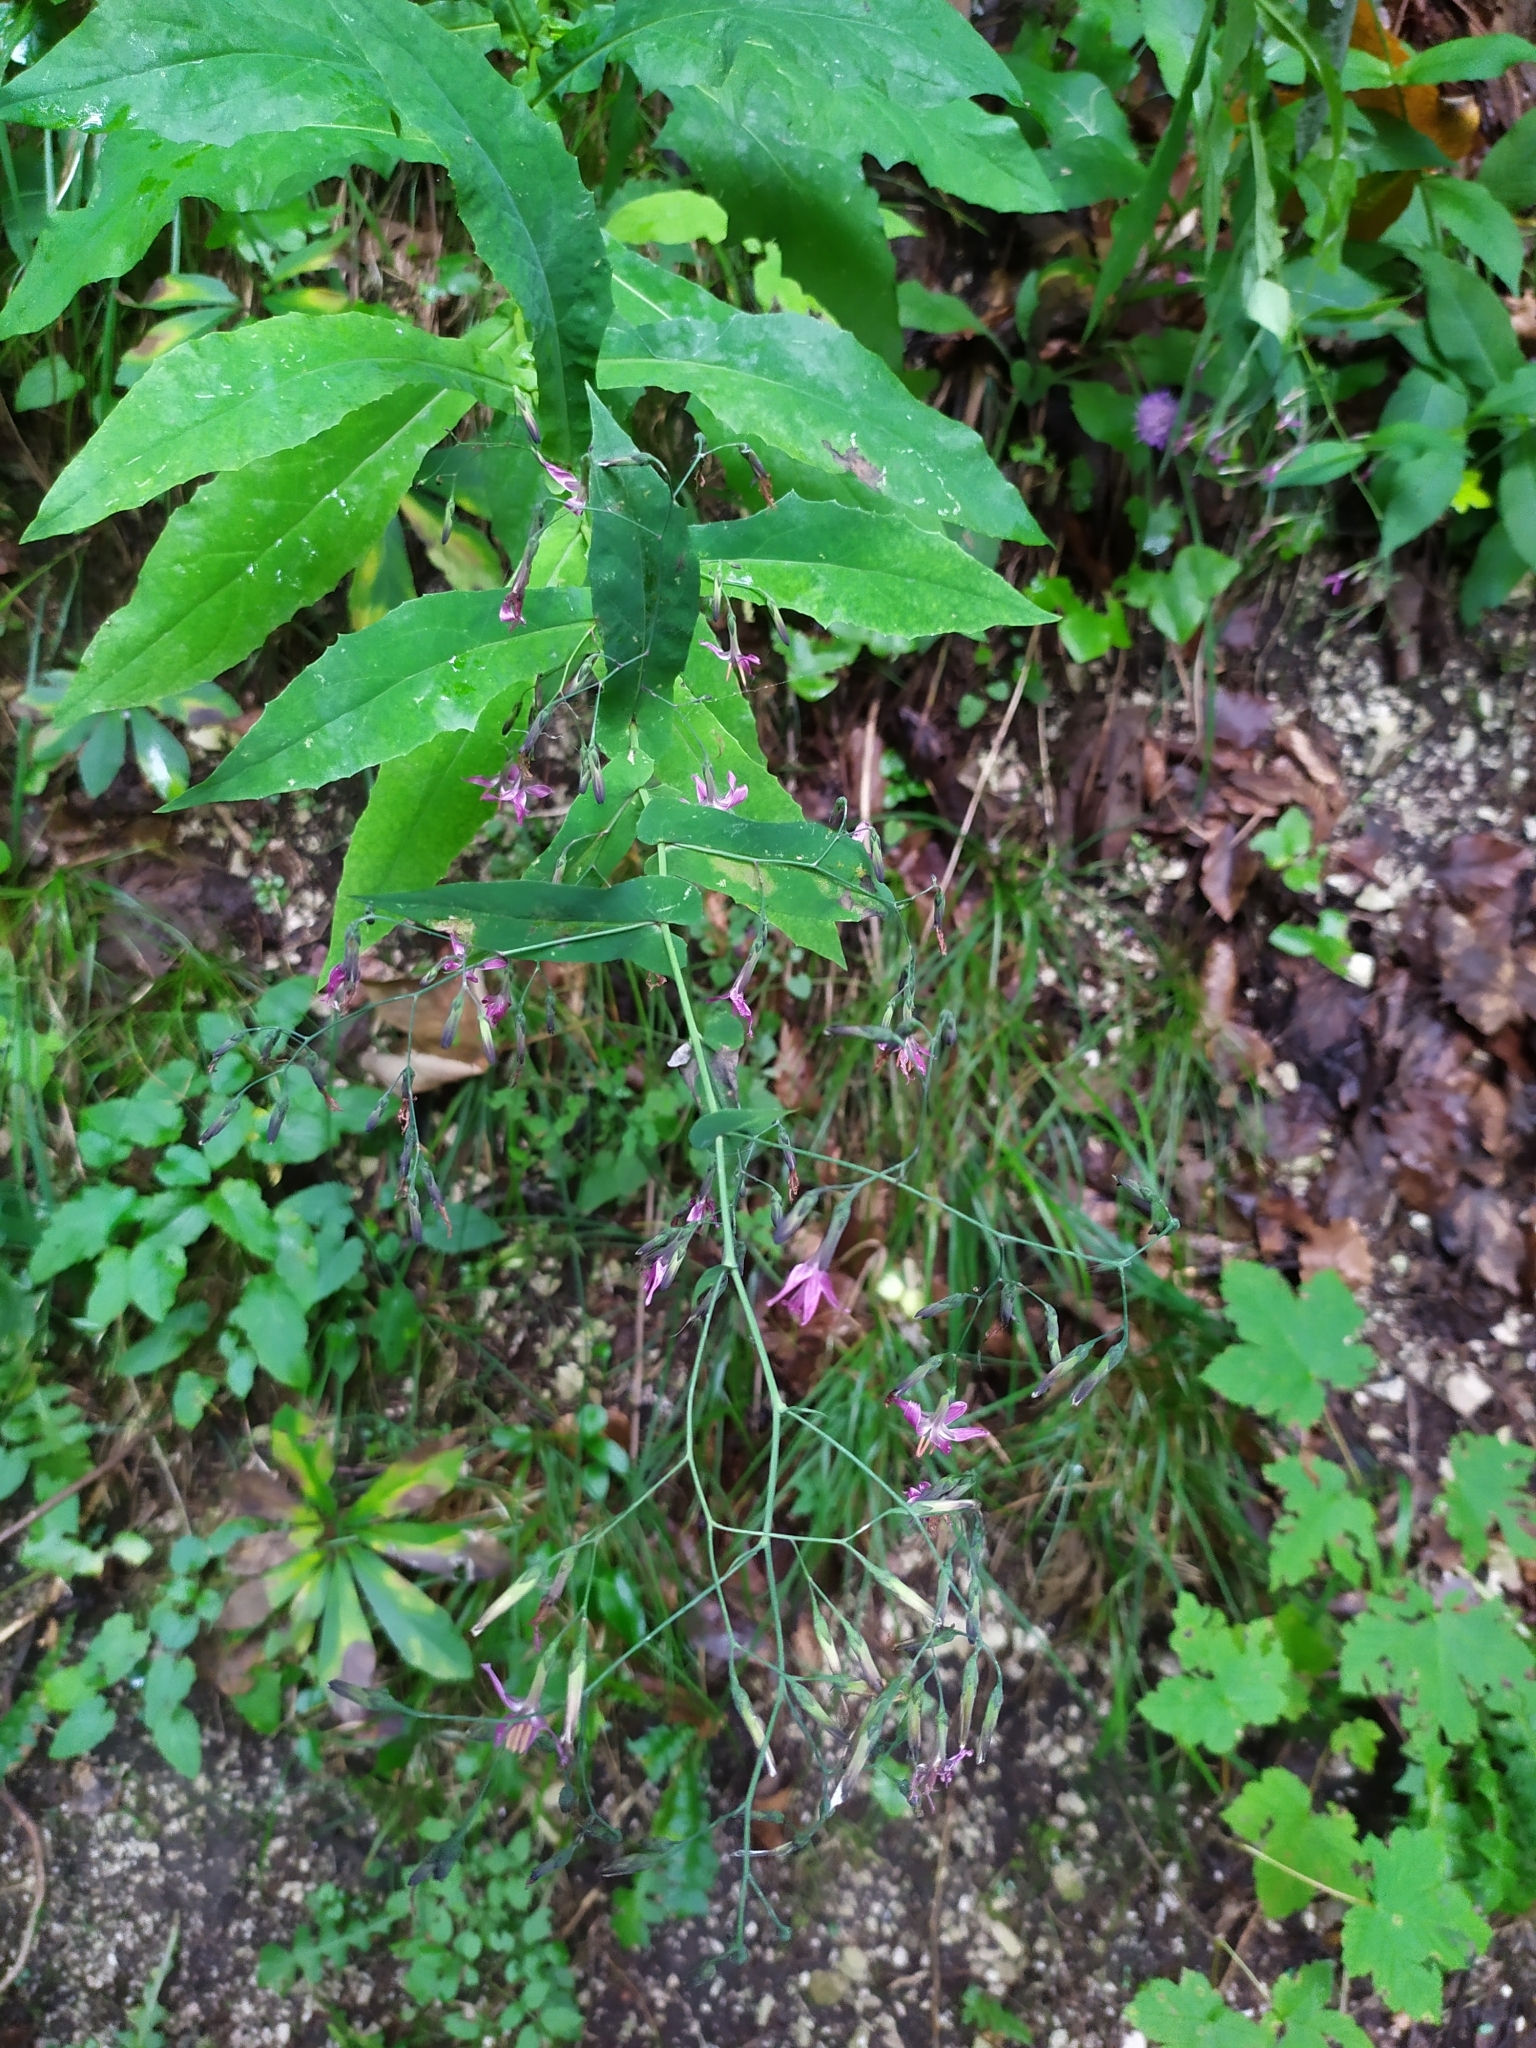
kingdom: Plantae
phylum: Tracheophyta
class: Magnoliopsida
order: Asterales
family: Asteraceae
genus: Prenanthes
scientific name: Prenanthes purpurea
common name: Purple lettuce
